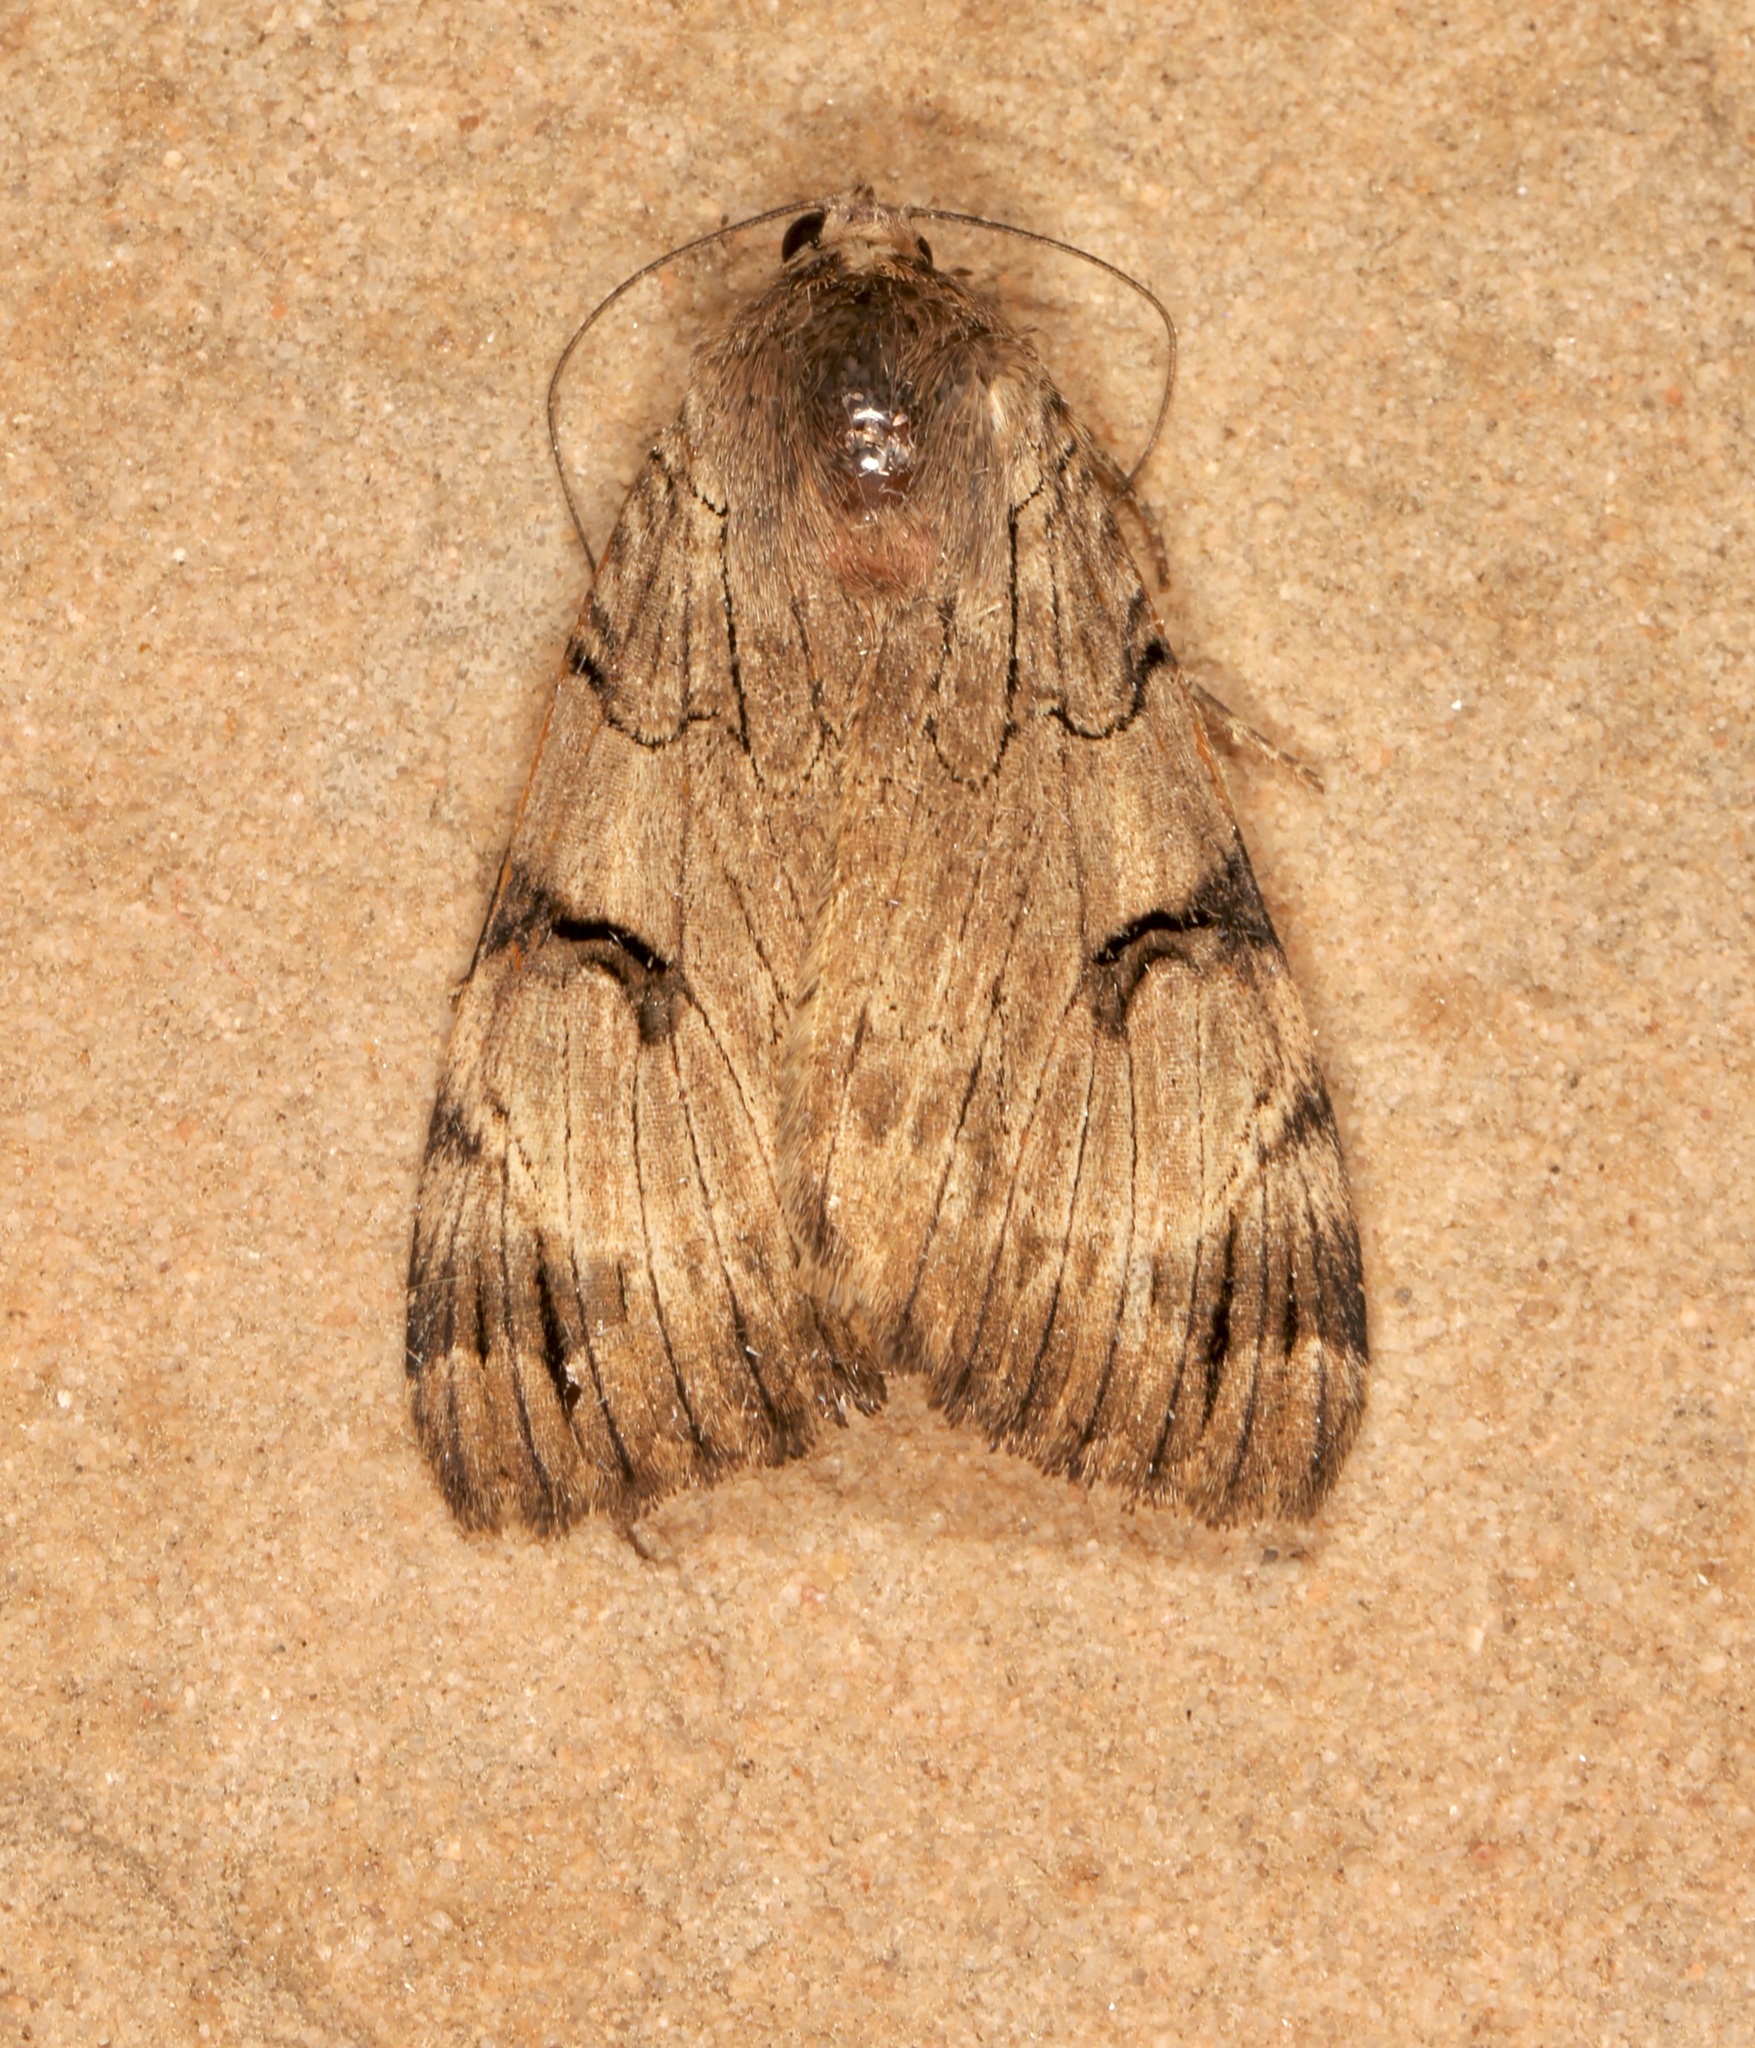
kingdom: Animalia
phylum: Arthropoda
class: Insecta
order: Lepidoptera
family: Erebidae
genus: Drasteria
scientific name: Drasteria ochracea
